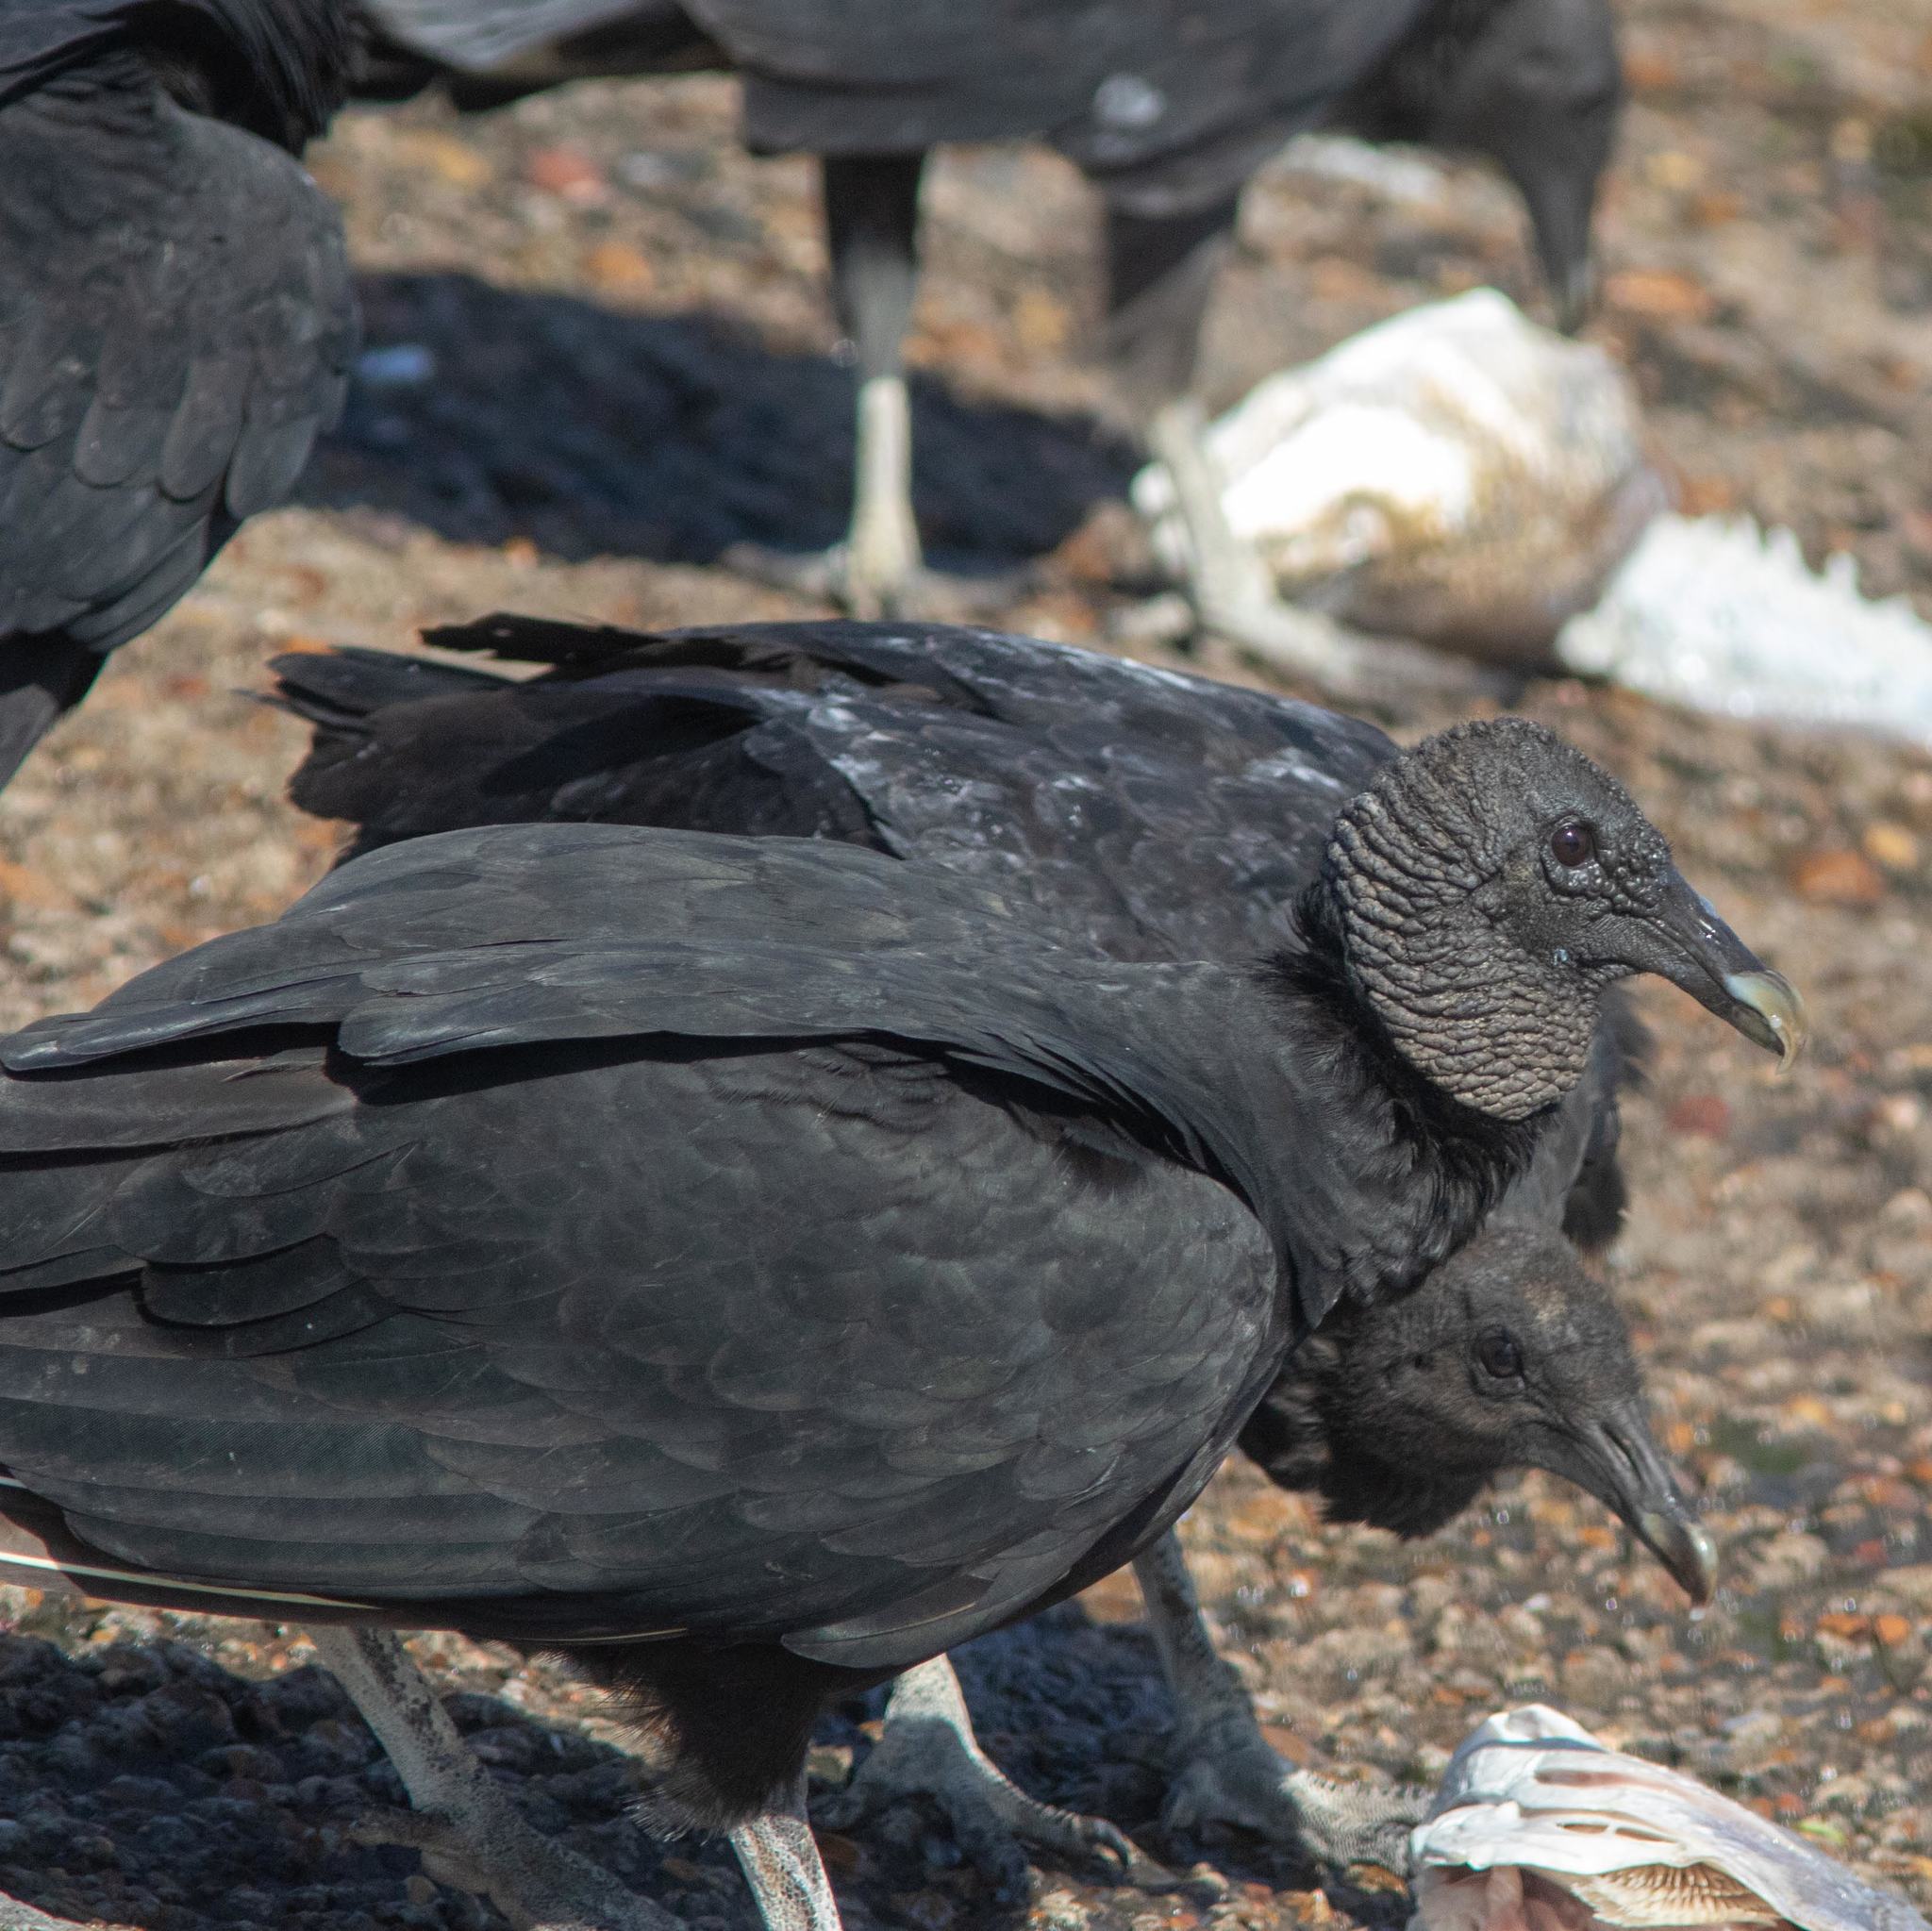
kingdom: Animalia
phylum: Chordata
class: Aves
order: Accipitriformes
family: Cathartidae
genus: Coragyps
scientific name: Coragyps atratus
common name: Black vulture
